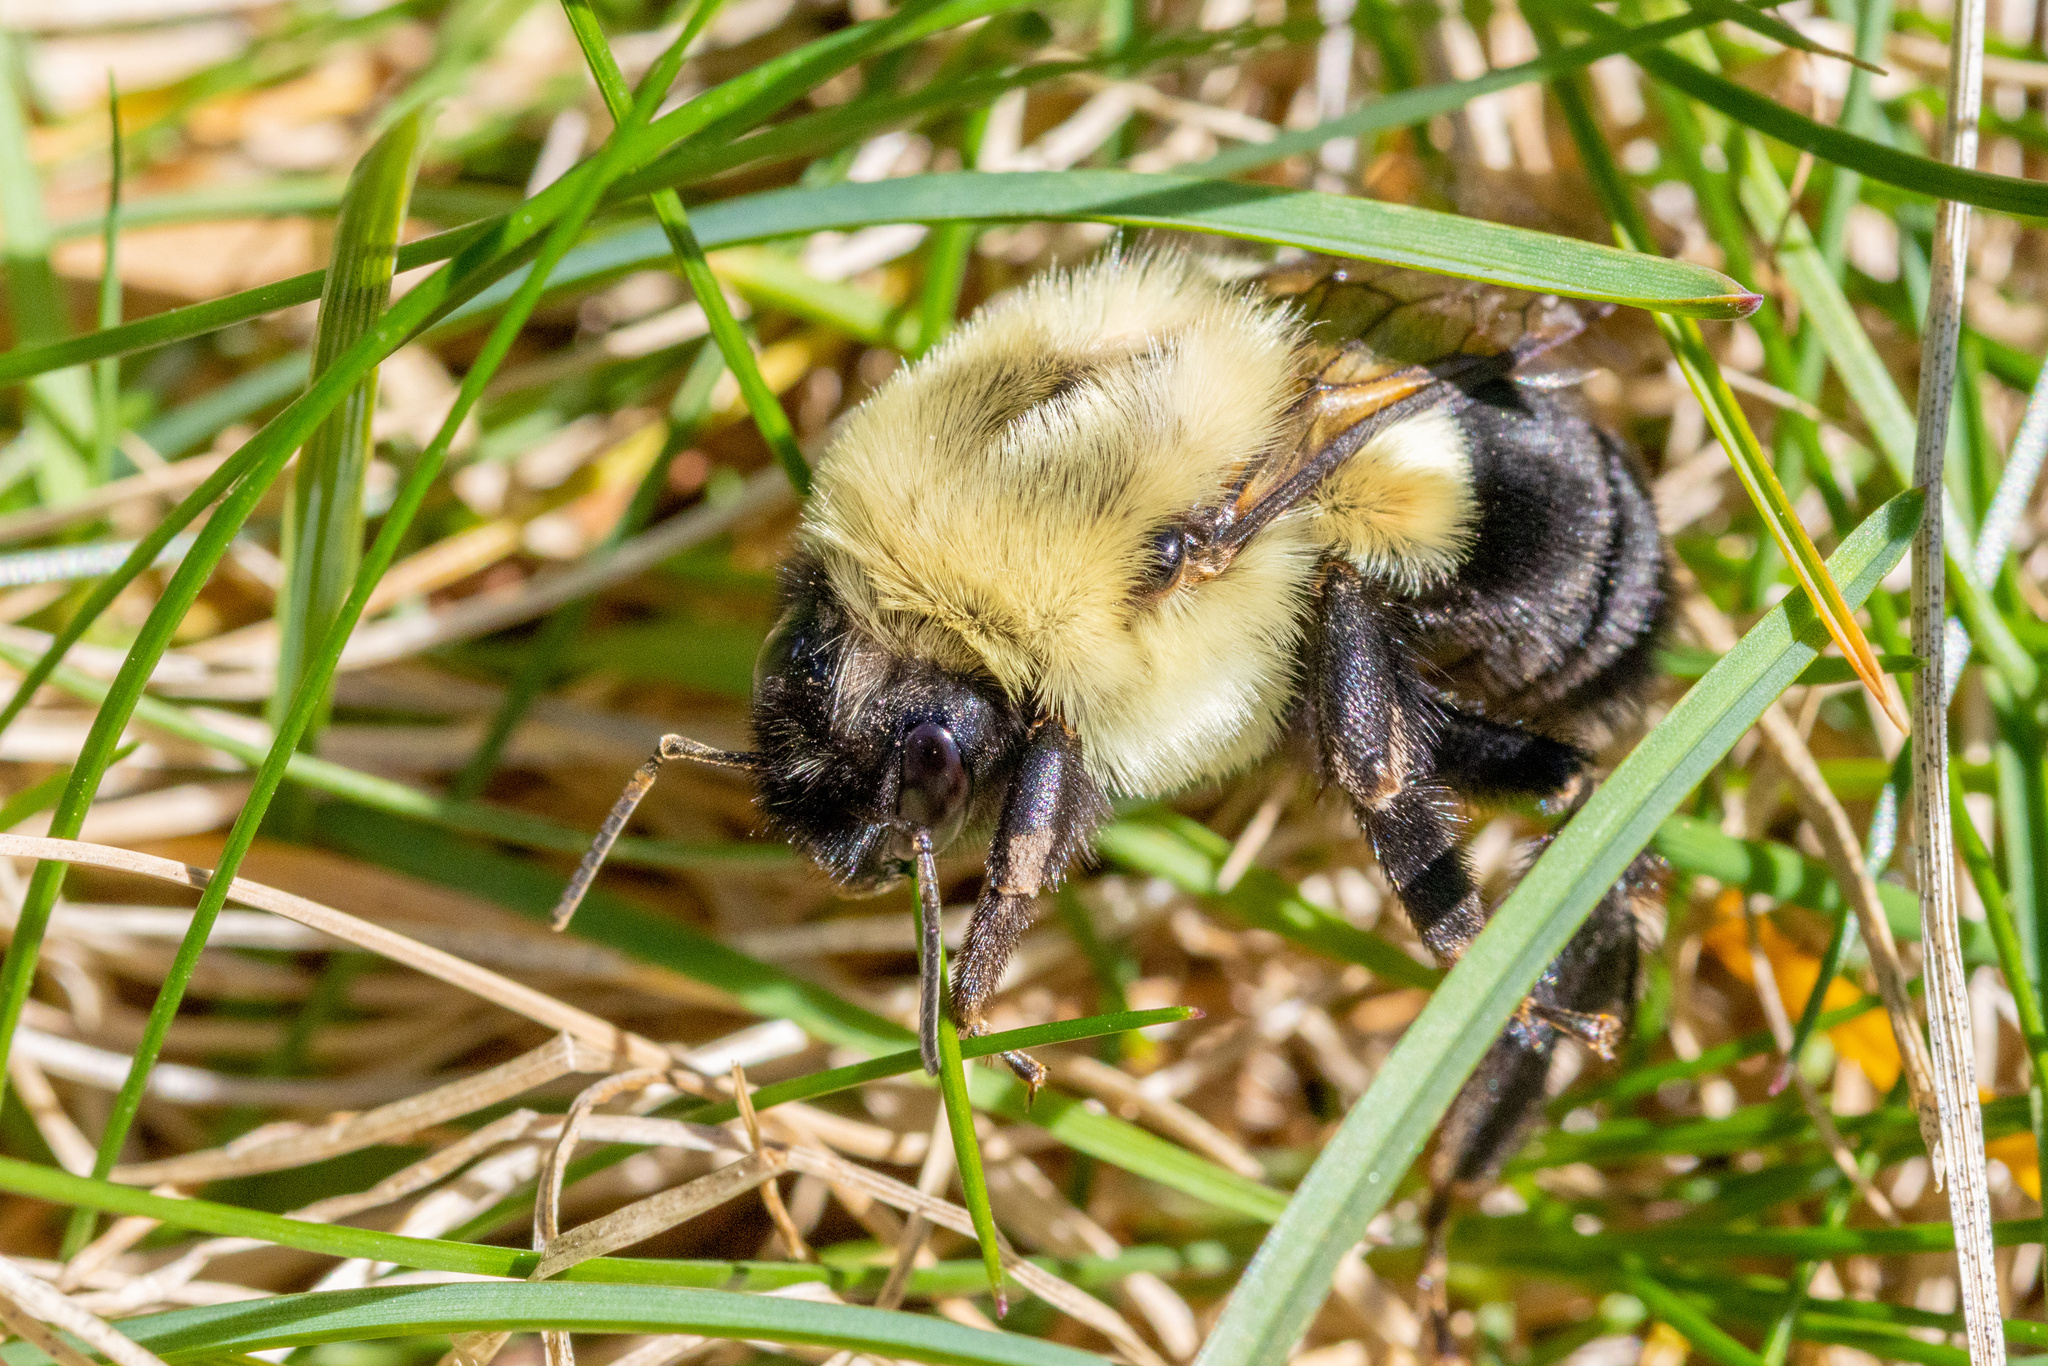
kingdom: Animalia
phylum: Arthropoda
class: Insecta
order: Hymenoptera
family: Apidae
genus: Bombus
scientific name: Bombus impatiens
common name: Common eastern bumble bee
